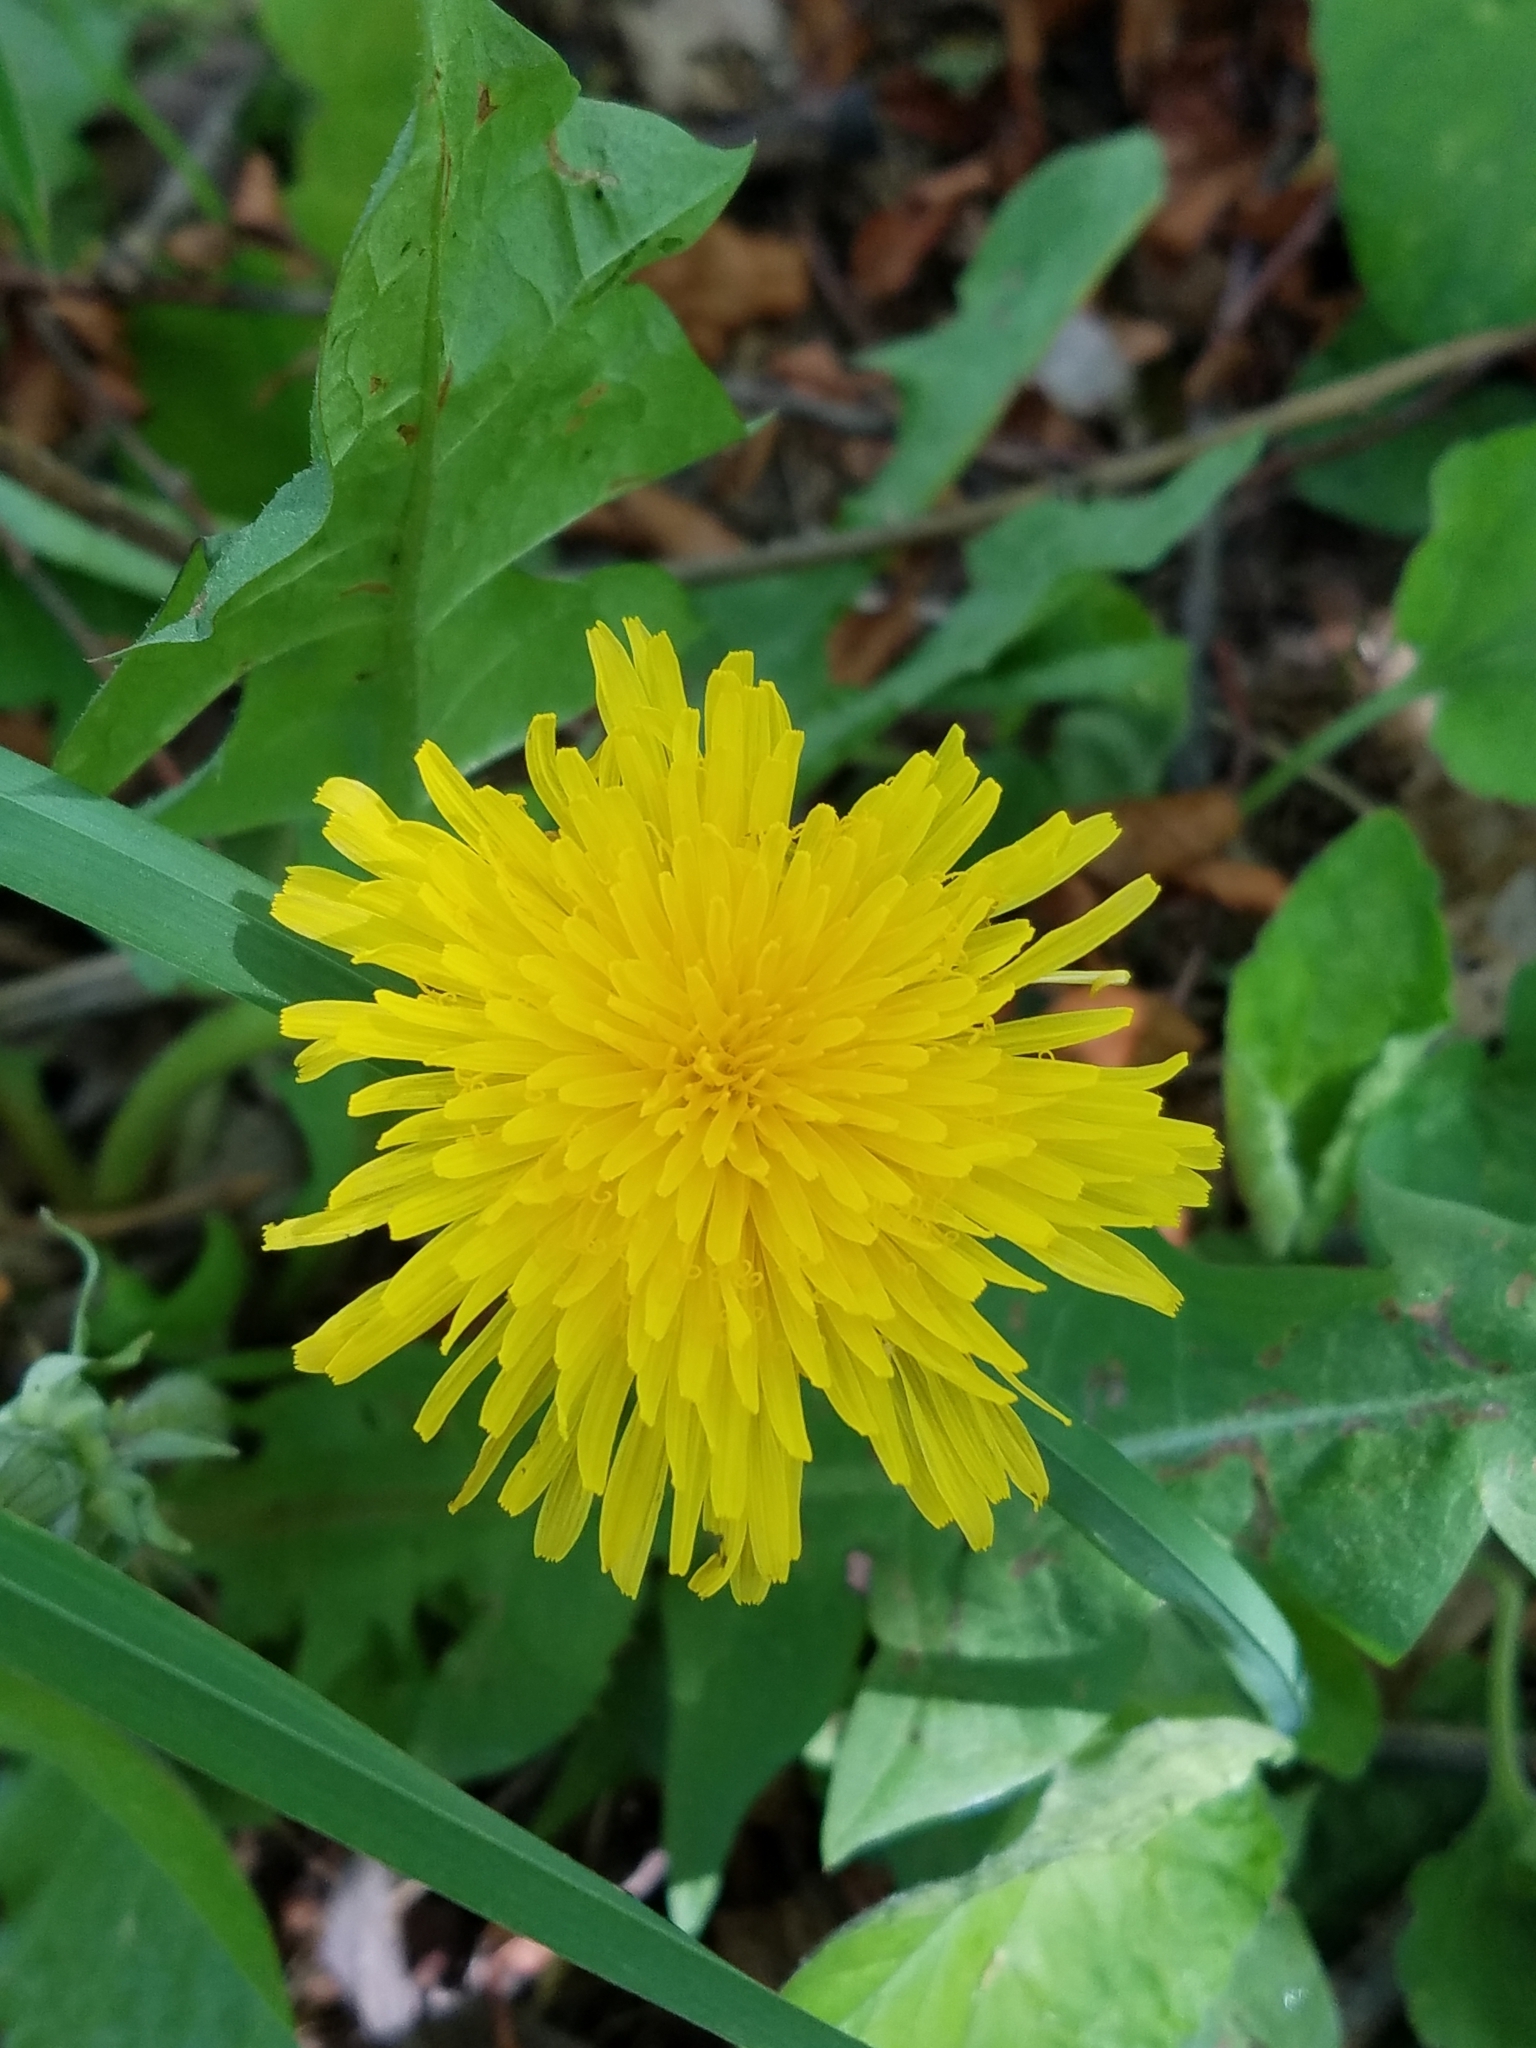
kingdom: Plantae
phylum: Tracheophyta
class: Magnoliopsida
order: Asterales
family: Asteraceae
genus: Taraxacum
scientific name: Taraxacum officinale
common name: Common dandelion
